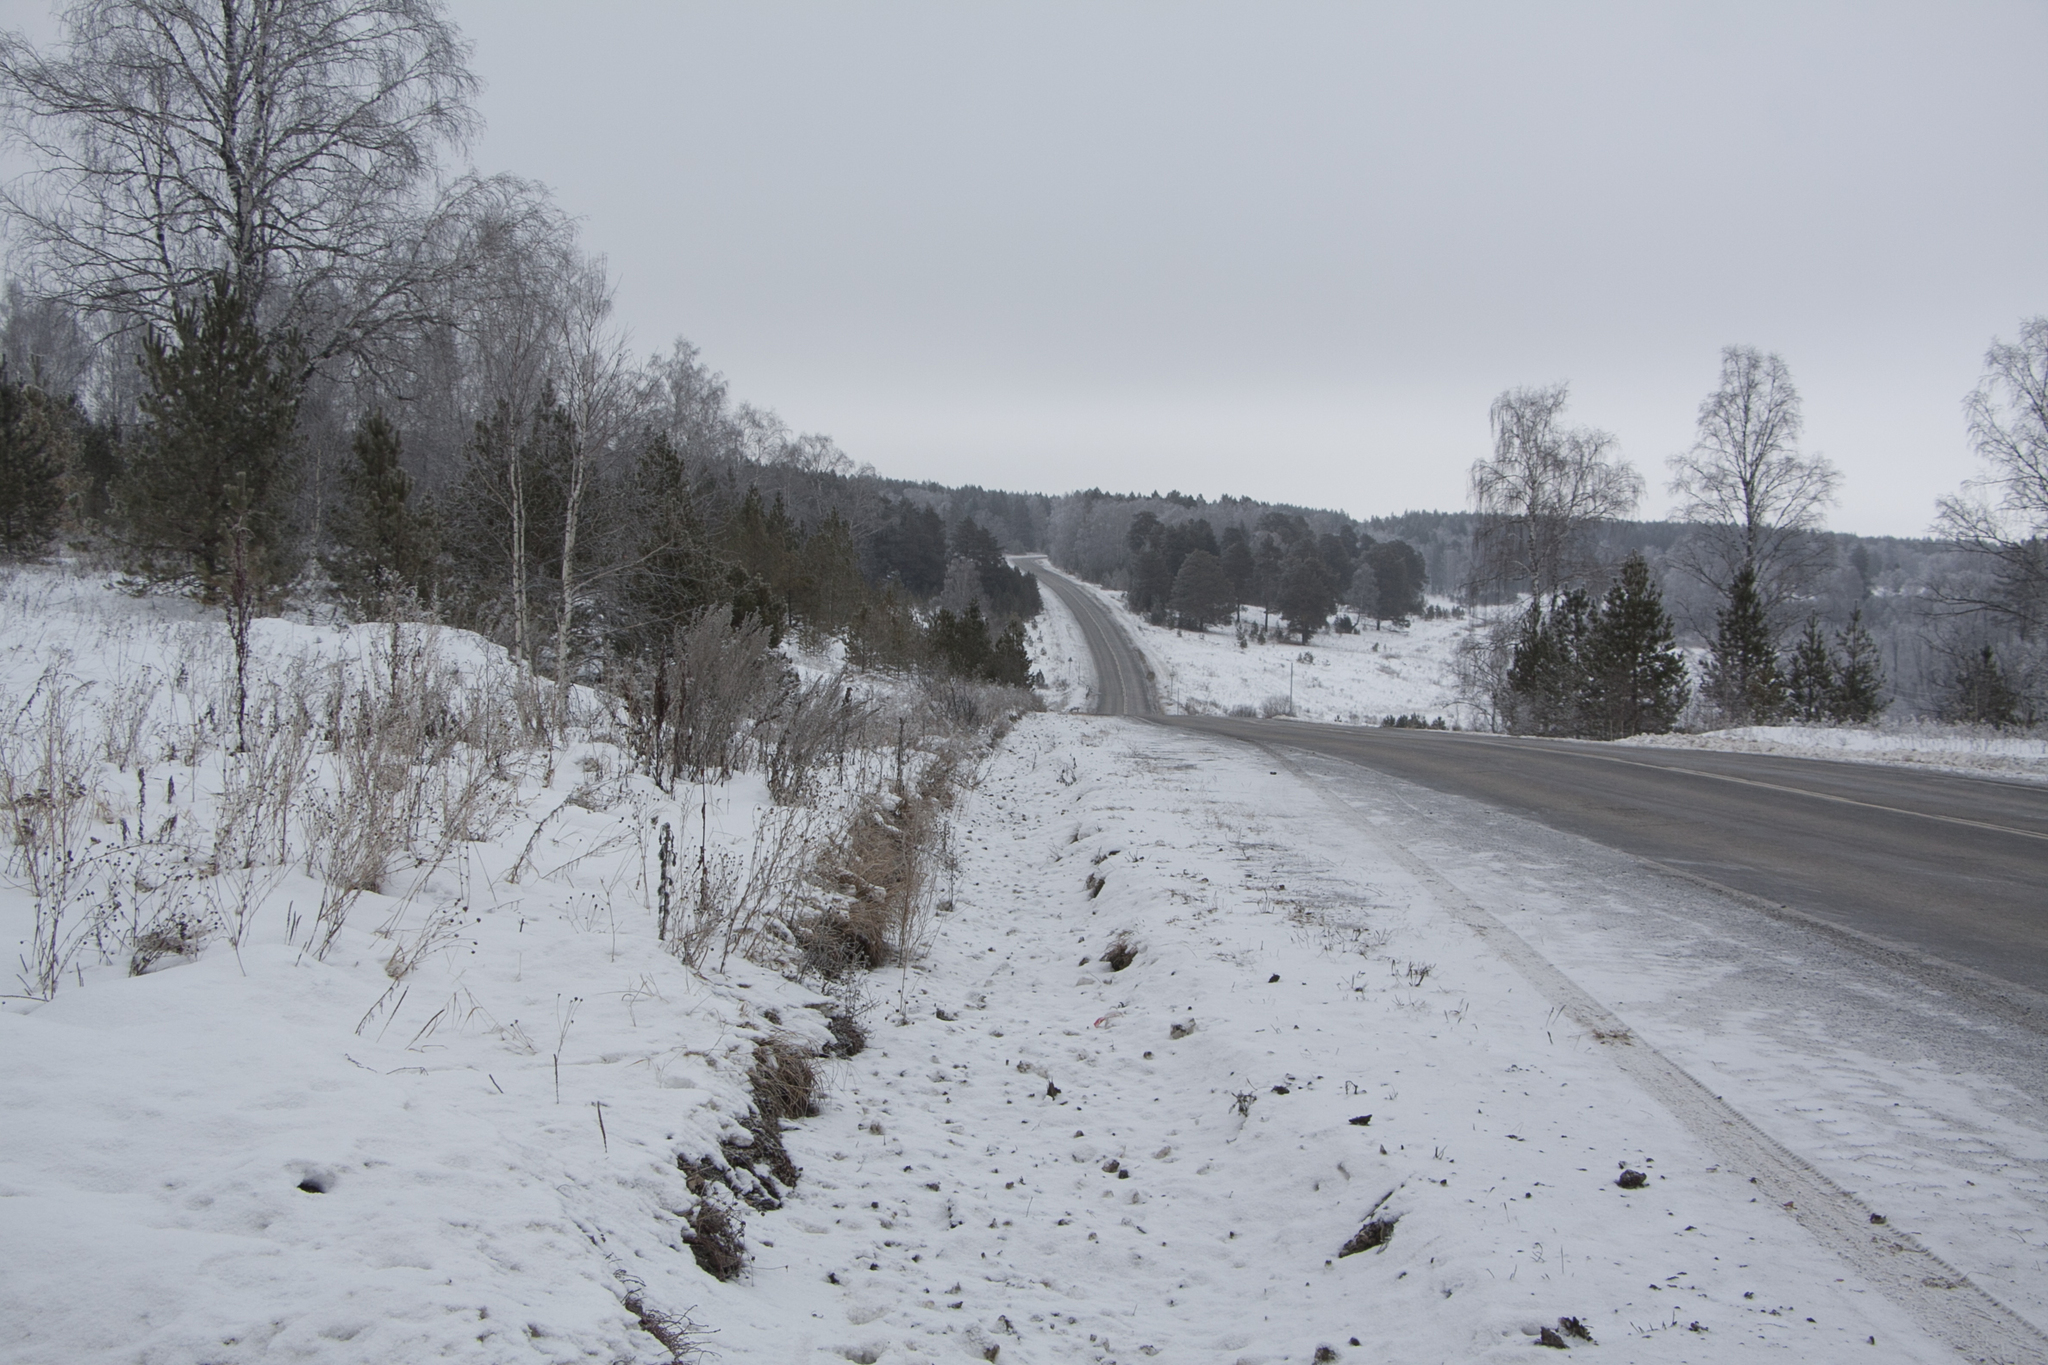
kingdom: Plantae
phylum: Tracheophyta
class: Magnoliopsida
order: Fagales
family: Betulaceae
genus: Betula
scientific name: Betula pendula
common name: Silver birch
